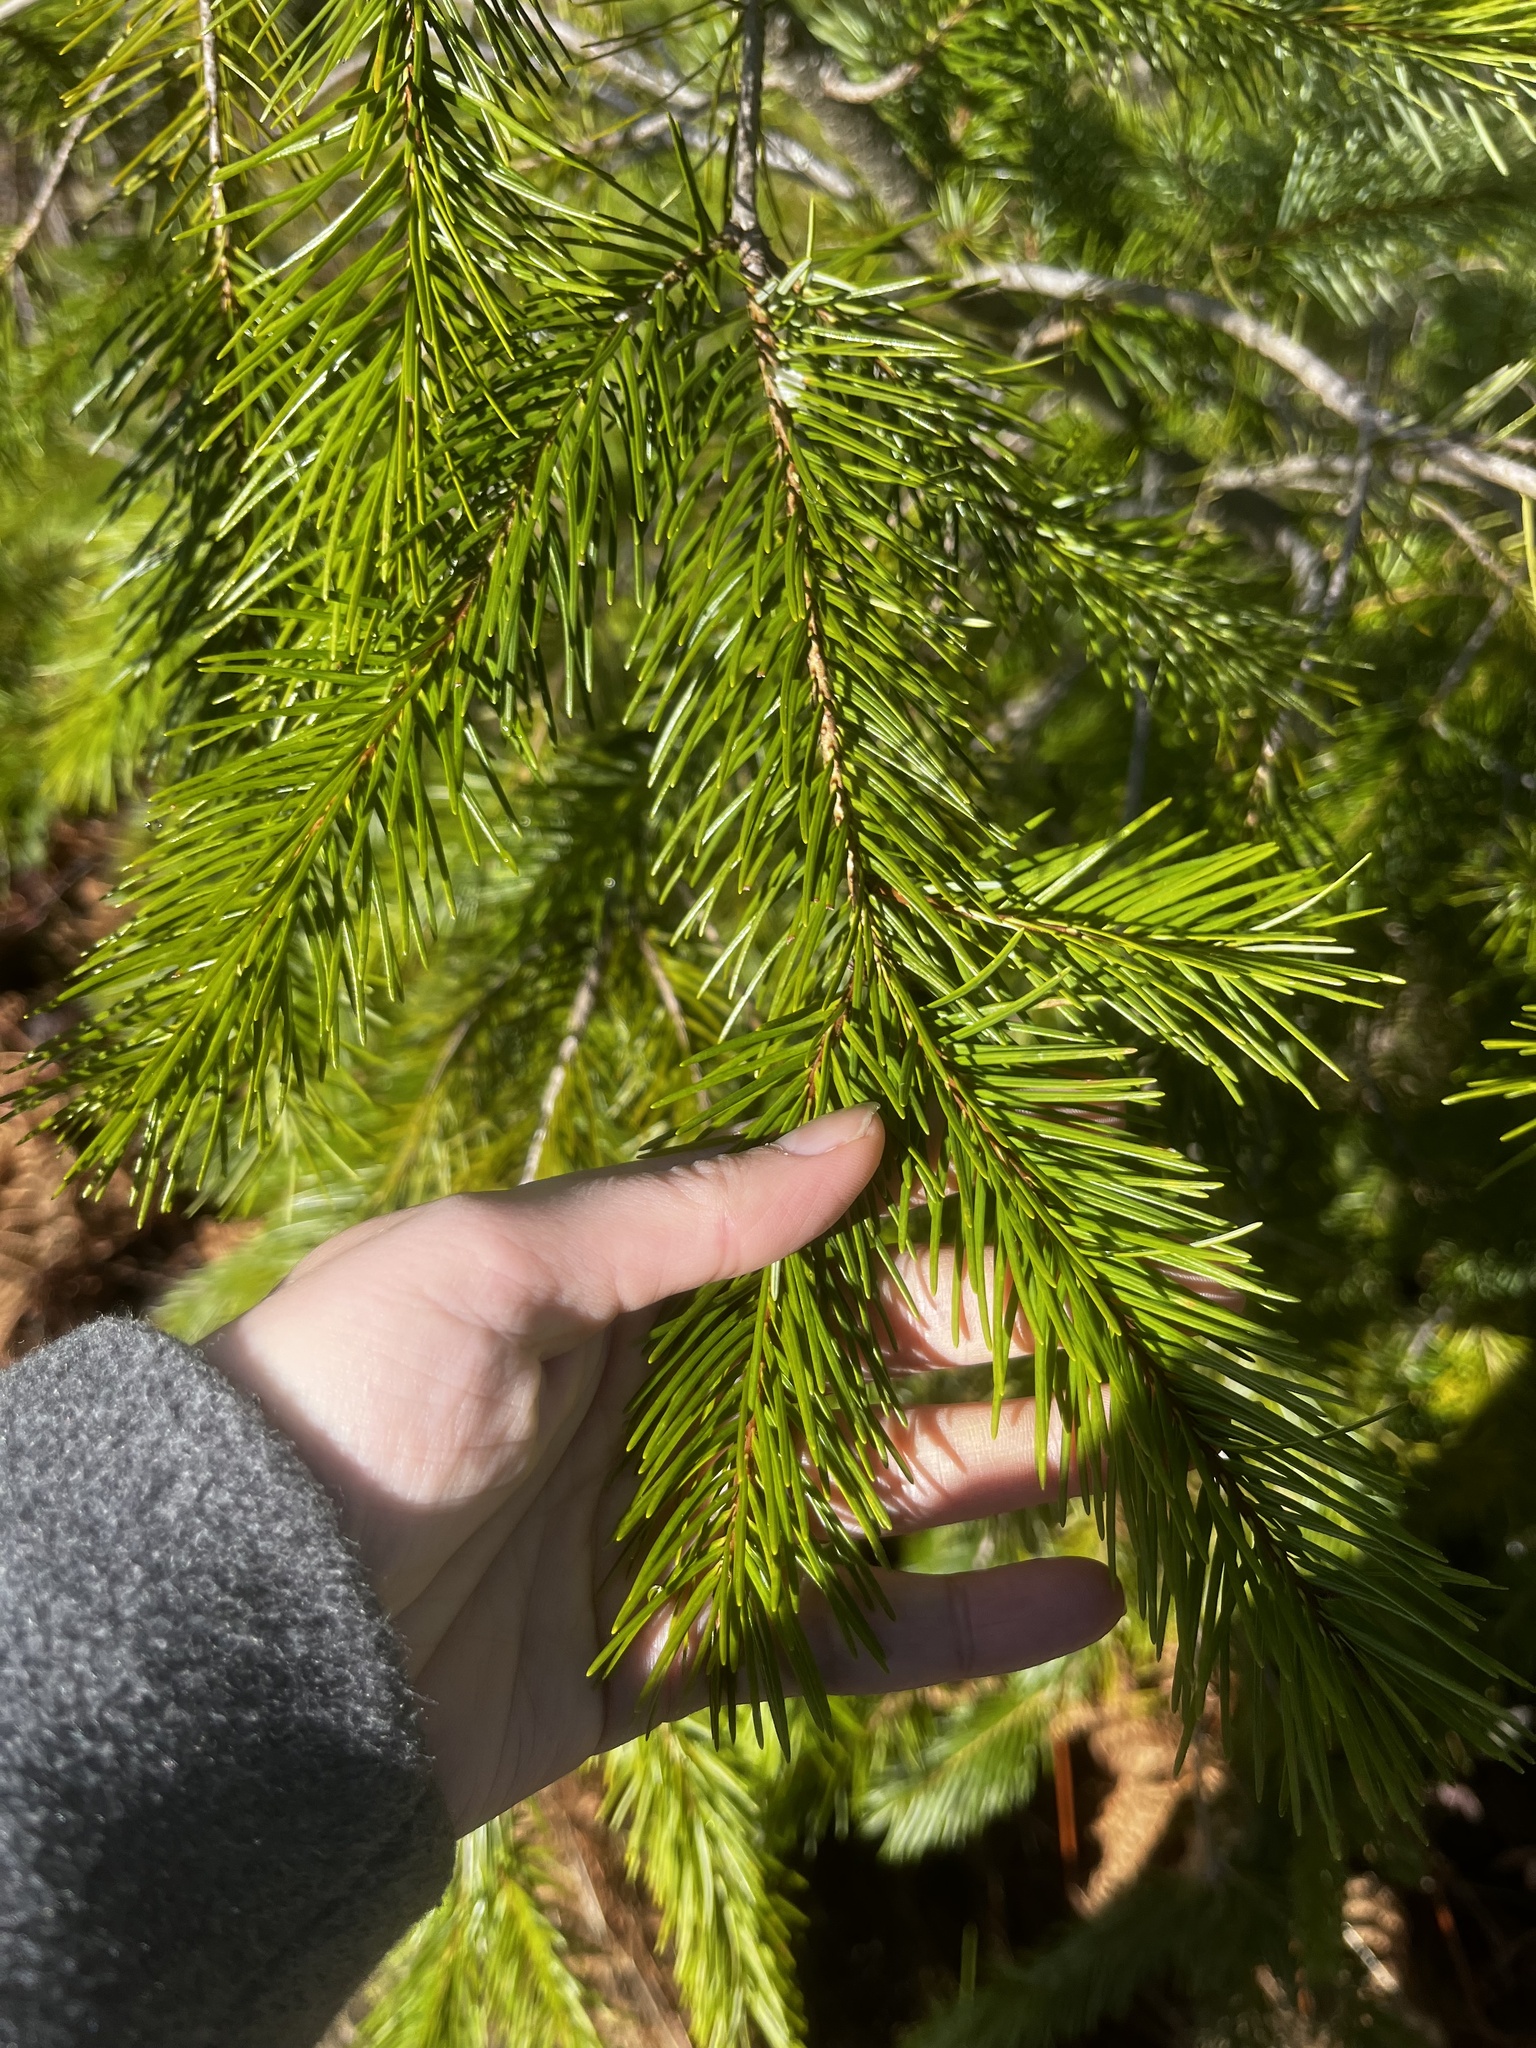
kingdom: Plantae
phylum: Tracheophyta
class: Pinopsida
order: Pinales
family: Pinaceae
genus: Pseudotsuga
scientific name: Pseudotsuga menziesii
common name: Douglas fir
